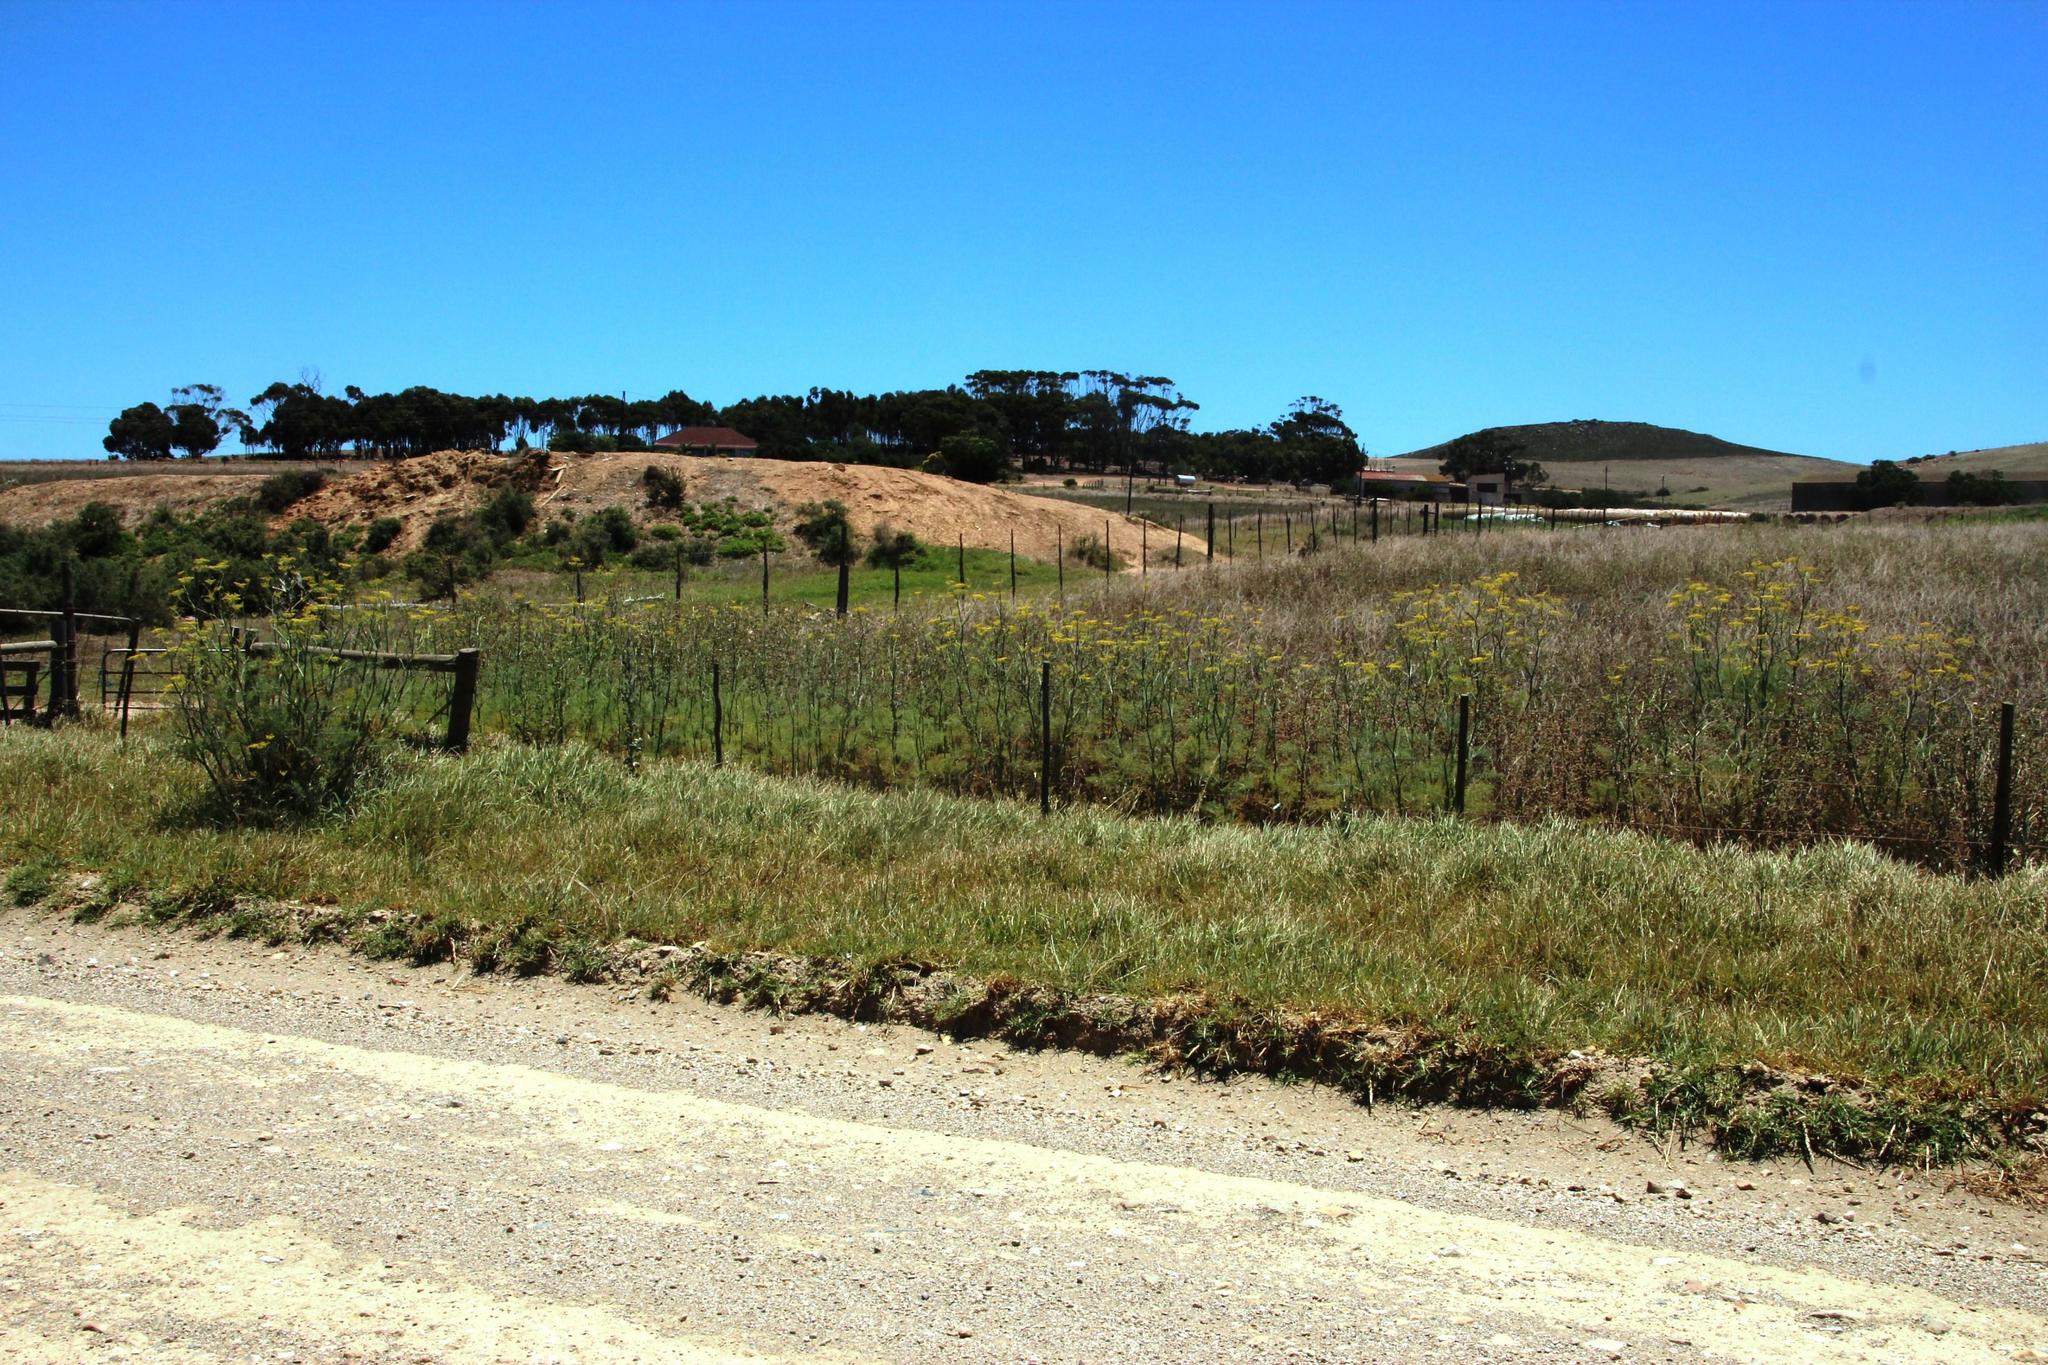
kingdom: Plantae
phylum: Tracheophyta
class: Magnoliopsida
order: Apiales
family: Apiaceae
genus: Foeniculum
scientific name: Foeniculum vulgare
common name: Fennel
